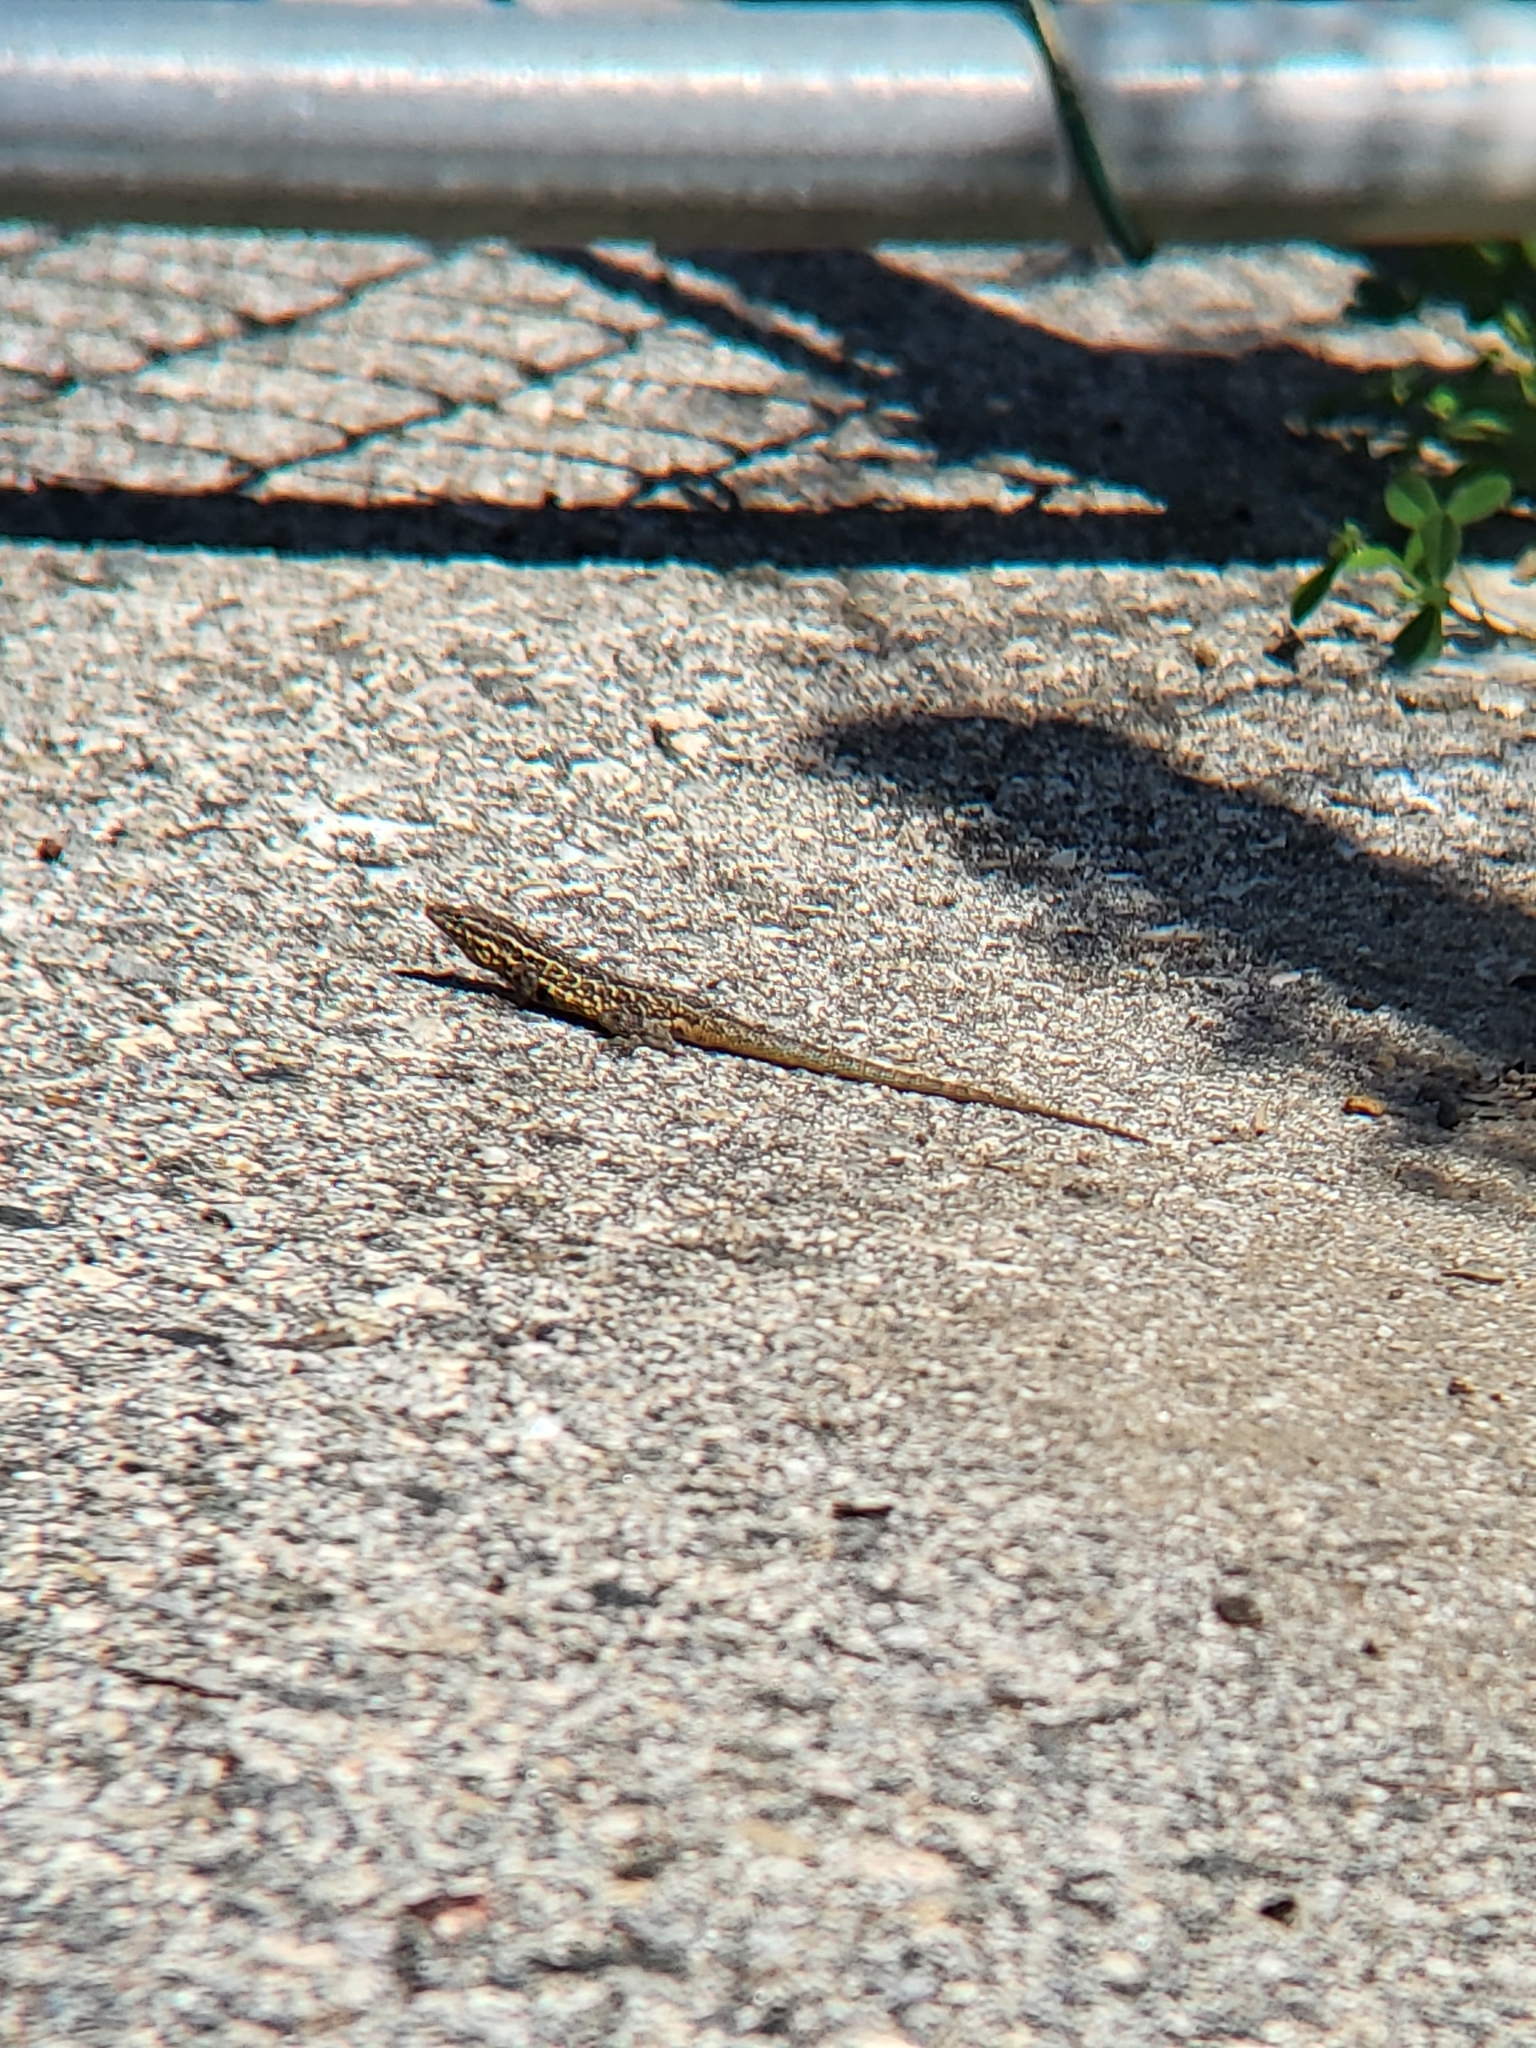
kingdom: Animalia
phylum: Chordata
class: Squamata
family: Phrynosomatidae
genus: Uta
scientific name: Uta stansburiana
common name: Side-blotched lizard
